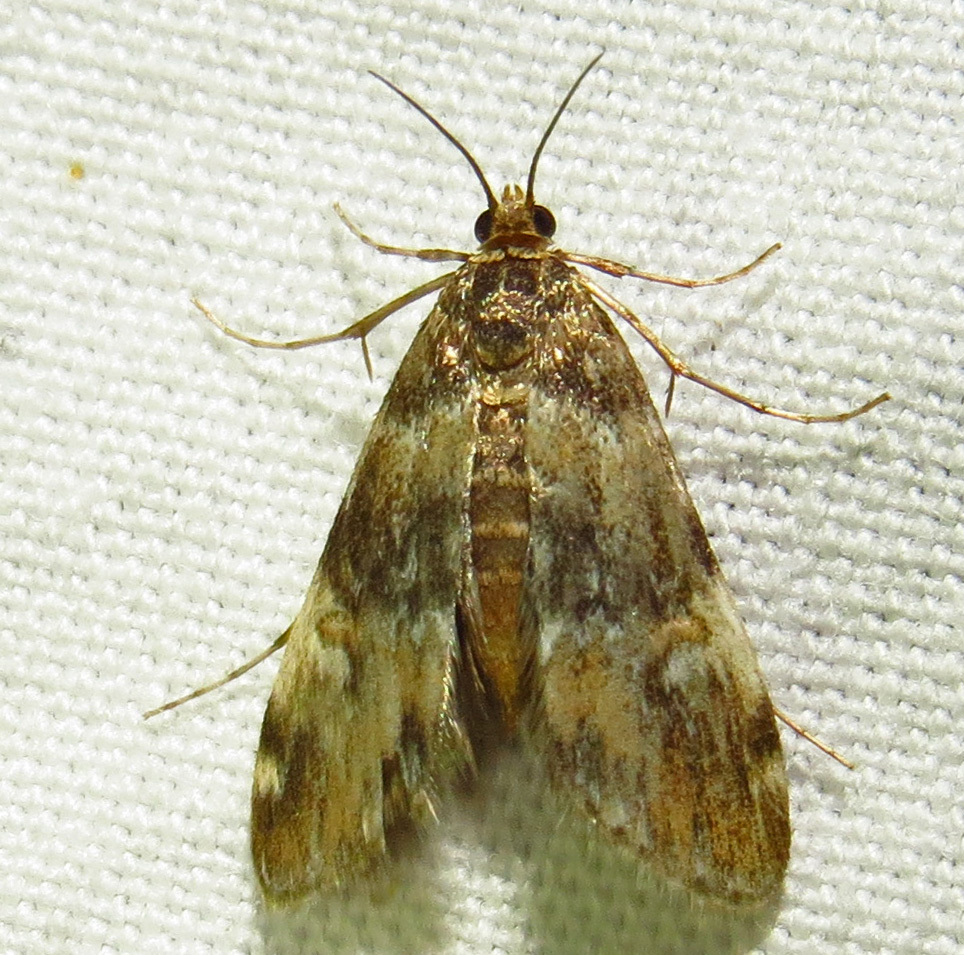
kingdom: Animalia
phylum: Arthropoda
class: Insecta
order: Lepidoptera
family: Crambidae
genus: Elophila
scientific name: Elophila obliteralis
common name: Waterlily leafcutter moth
